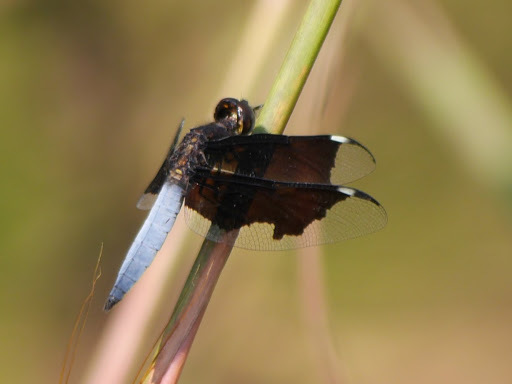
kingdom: Animalia
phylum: Arthropoda
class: Insecta
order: Odonata
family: Libellulidae
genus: Palpopleura
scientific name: Palpopleura lucia
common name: Lucia widow
